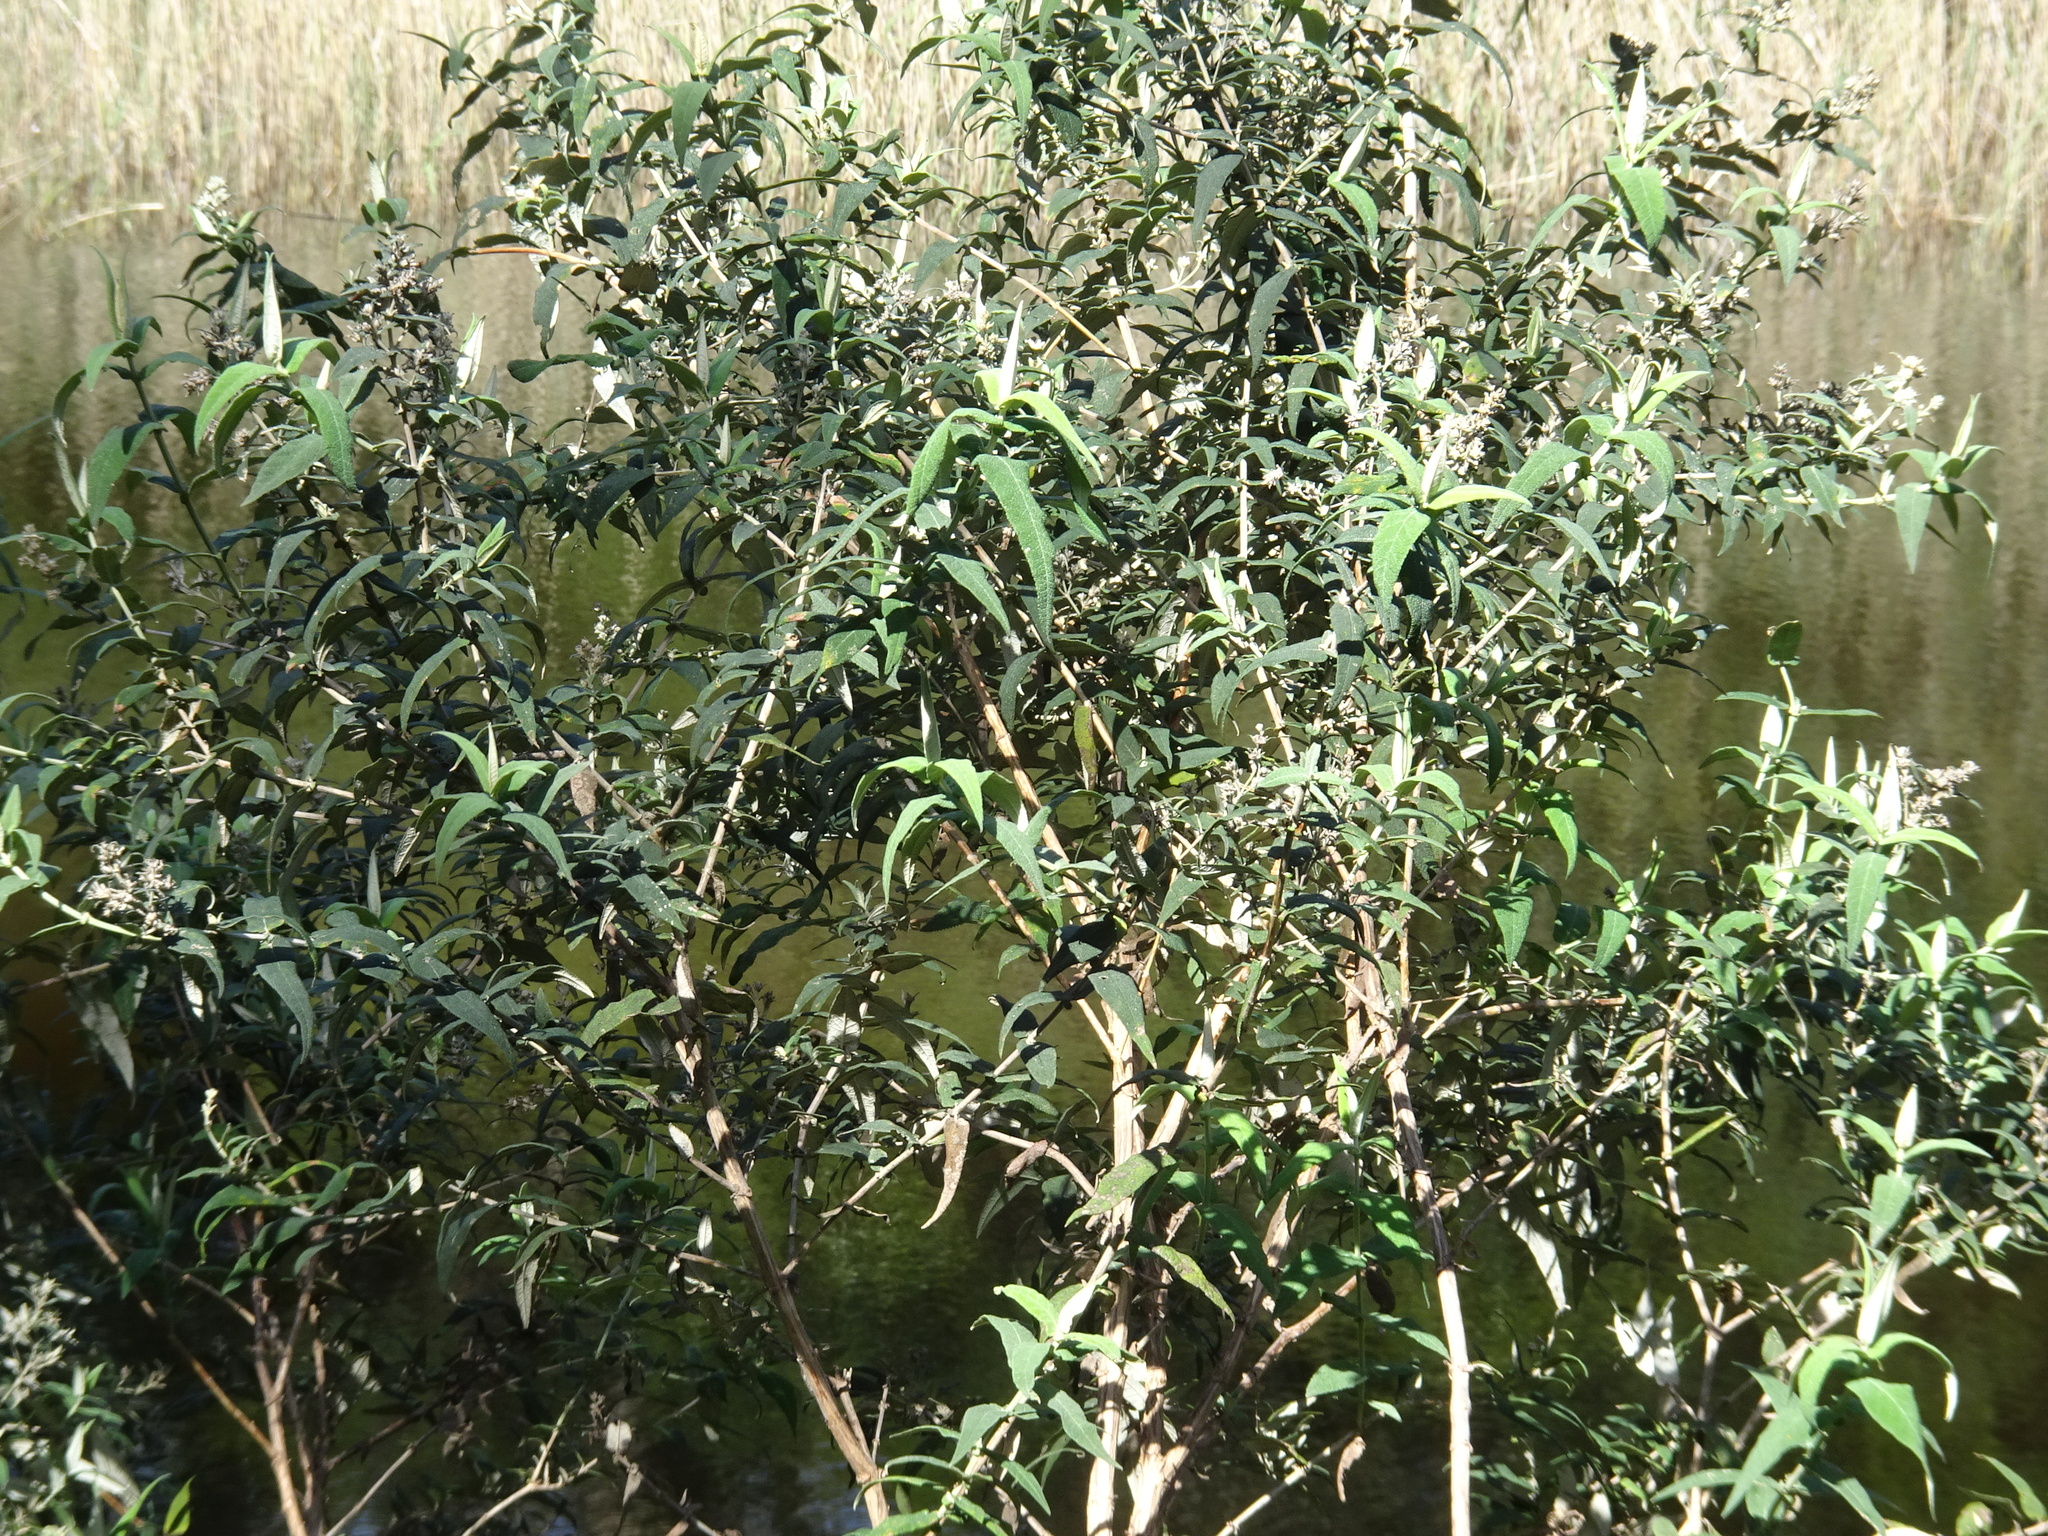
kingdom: Plantae
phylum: Tracheophyta
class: Magnoliopsida
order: Lamiales
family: Scrophulariaceae
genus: Buddleja
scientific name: Buddleja salviifolia
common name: Sagewood
